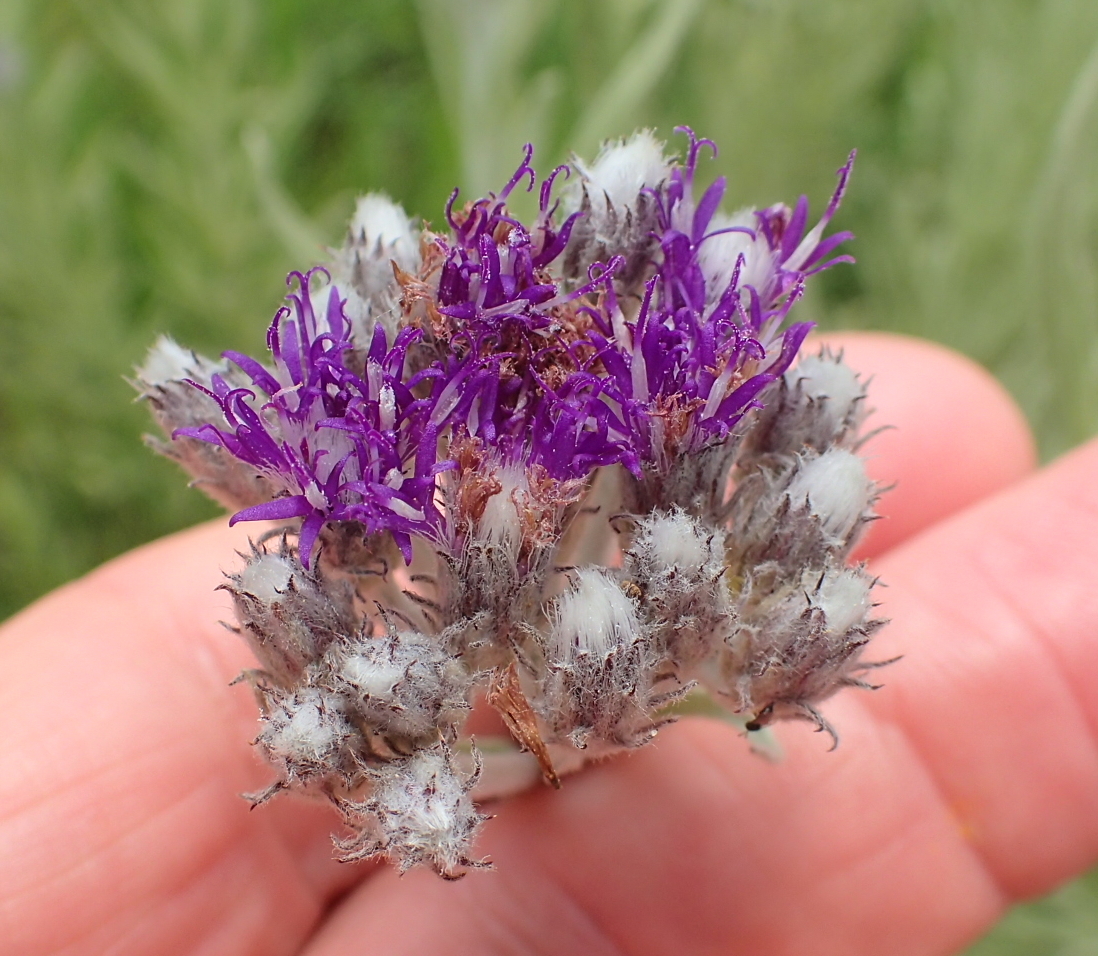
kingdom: Plantae
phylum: Tracheophyta
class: Magnoliopsida
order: Asterales
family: Asteraceae
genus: Hilliardiella
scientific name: Hilliardiella aristata
